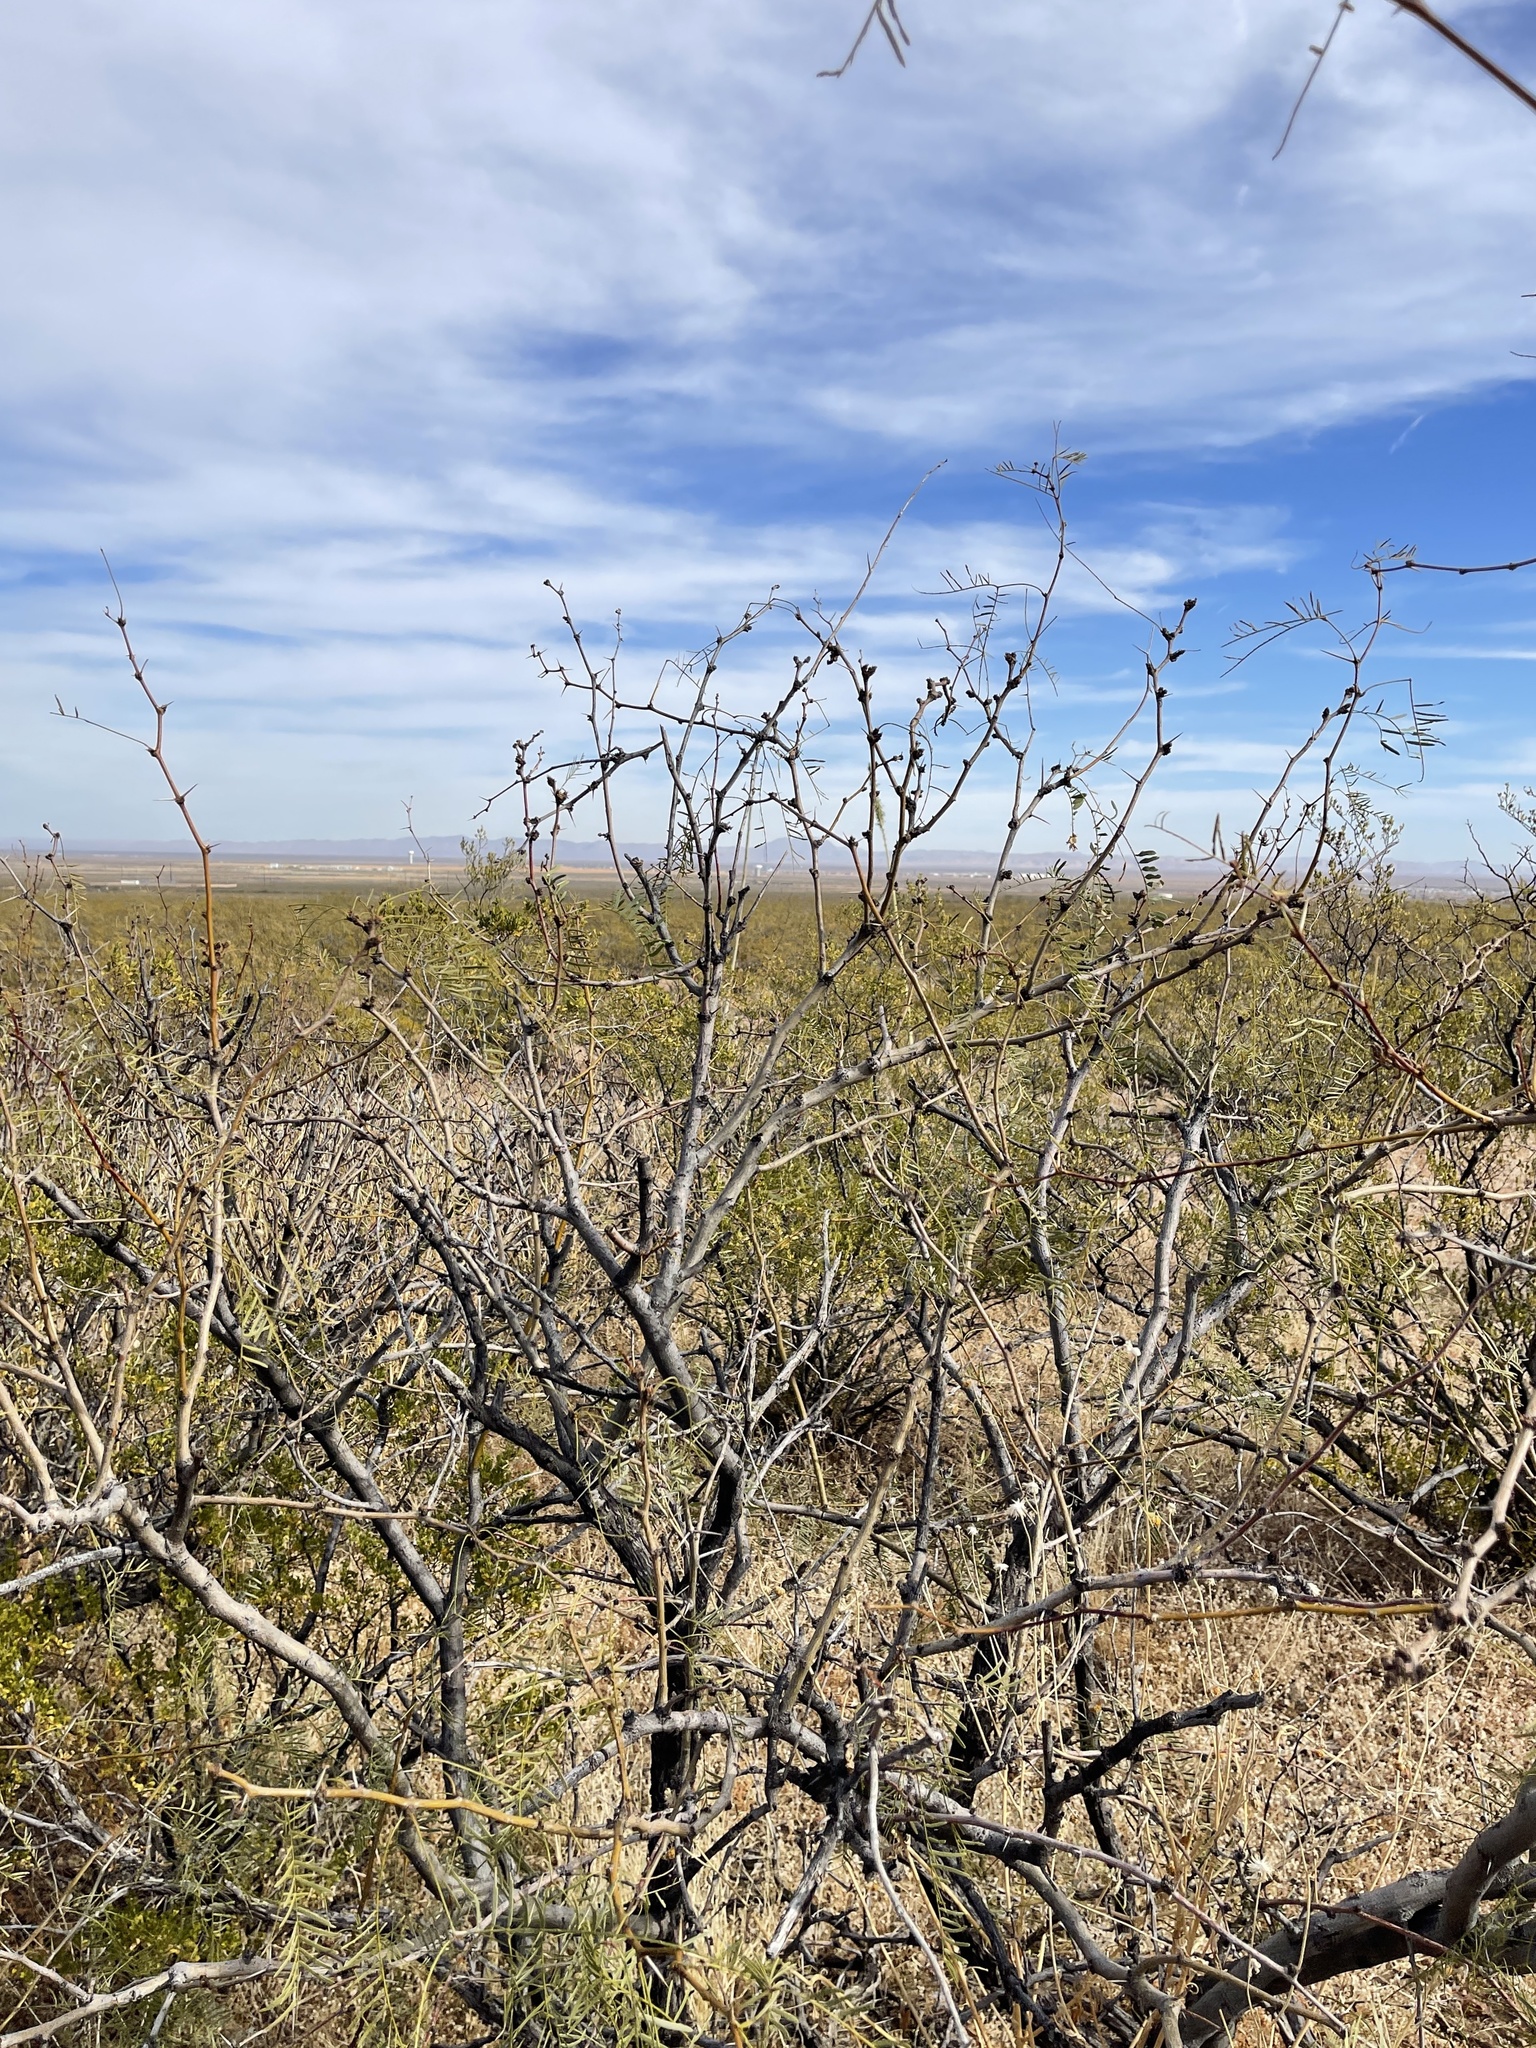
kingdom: Plantae
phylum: Tracheophyta
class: Magnoliopsida
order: Fabales
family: Fabaceae
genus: Prosopis
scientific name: Prosopis glandulosa
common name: Honey mesquite
